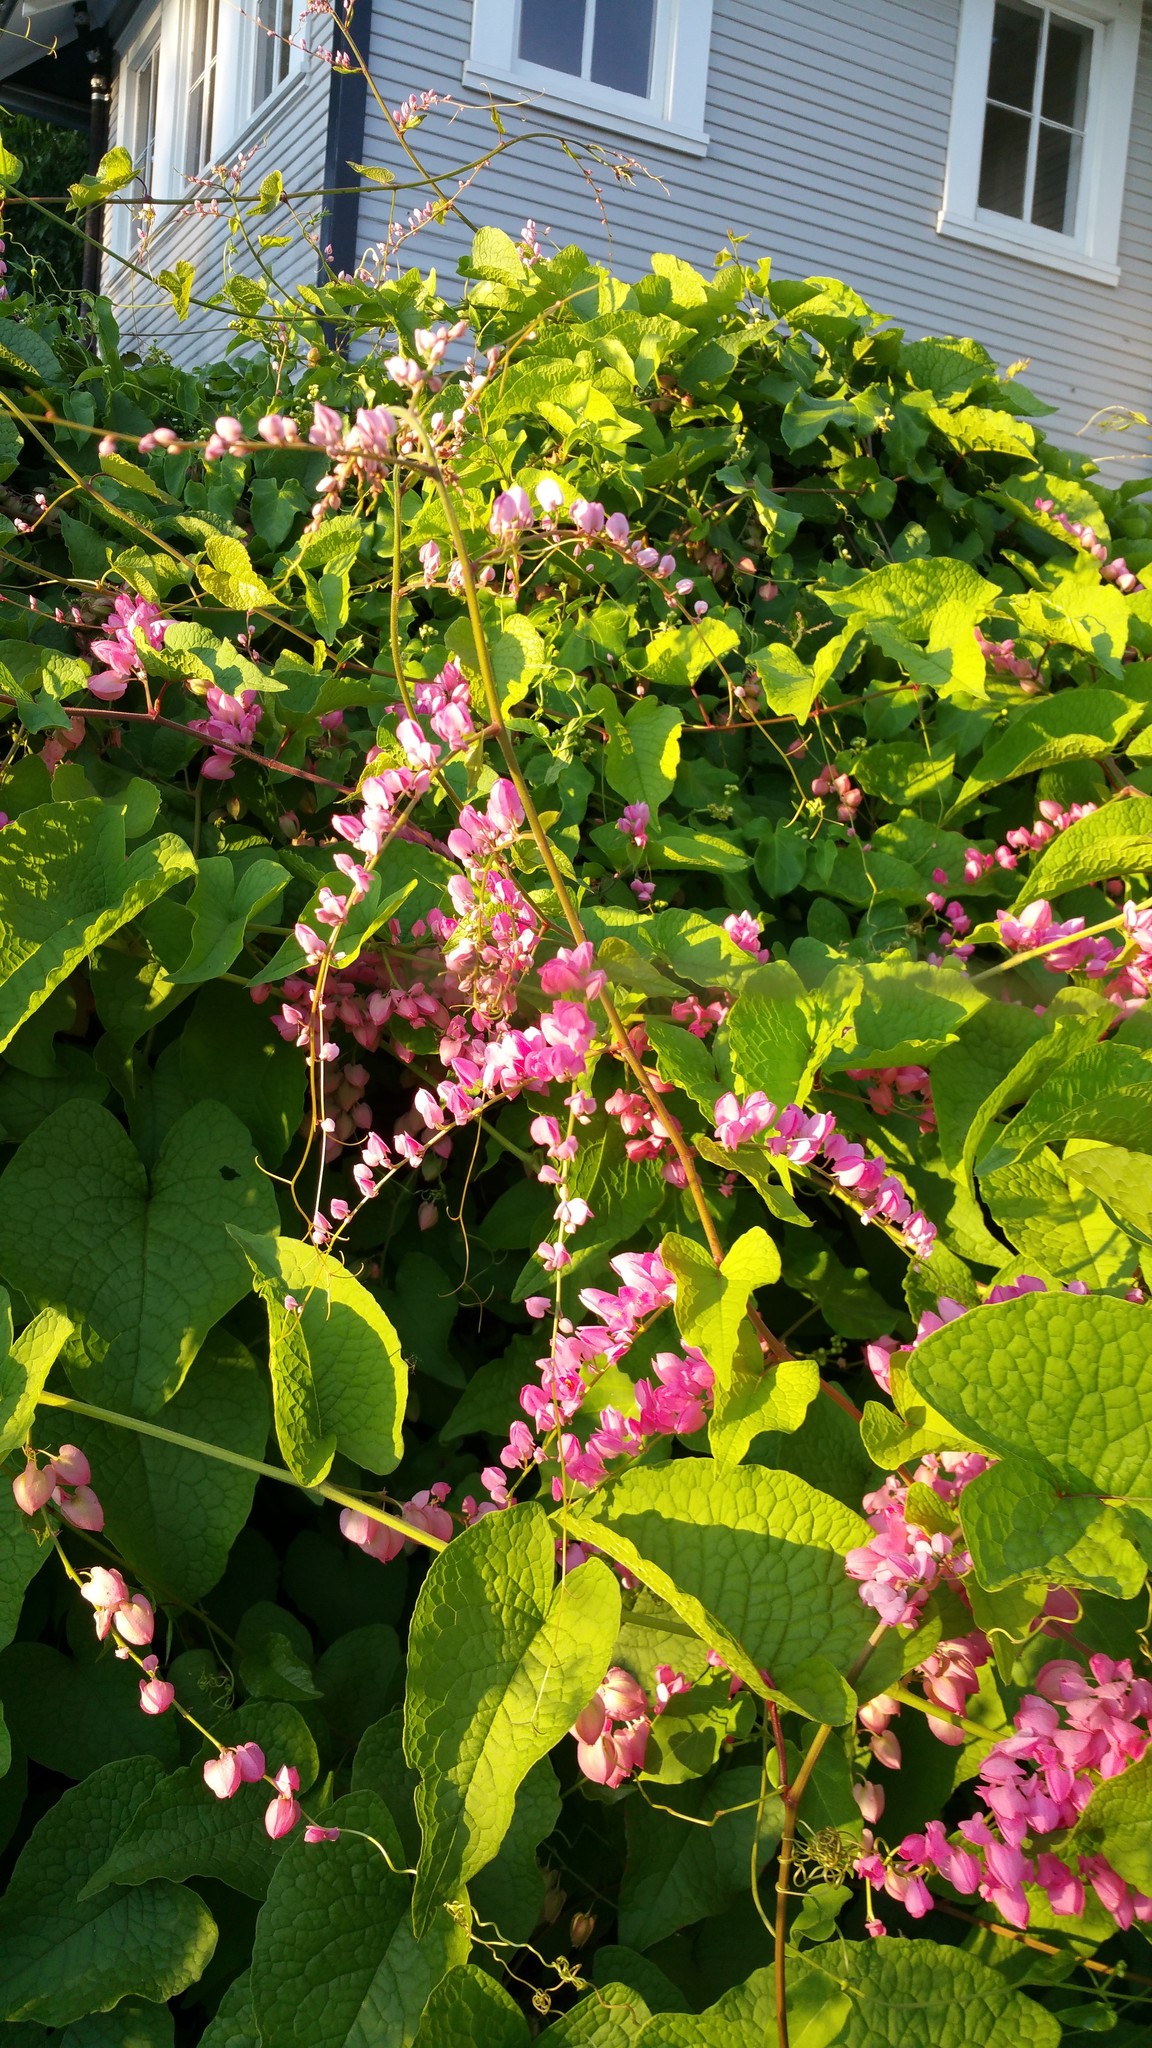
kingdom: Plantae
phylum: Tracheophyta
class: Magnoliopsida
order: Caryophyllales
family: Polygonaceae
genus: Antigonon
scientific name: Antigonon leptopus
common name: Coral vine
